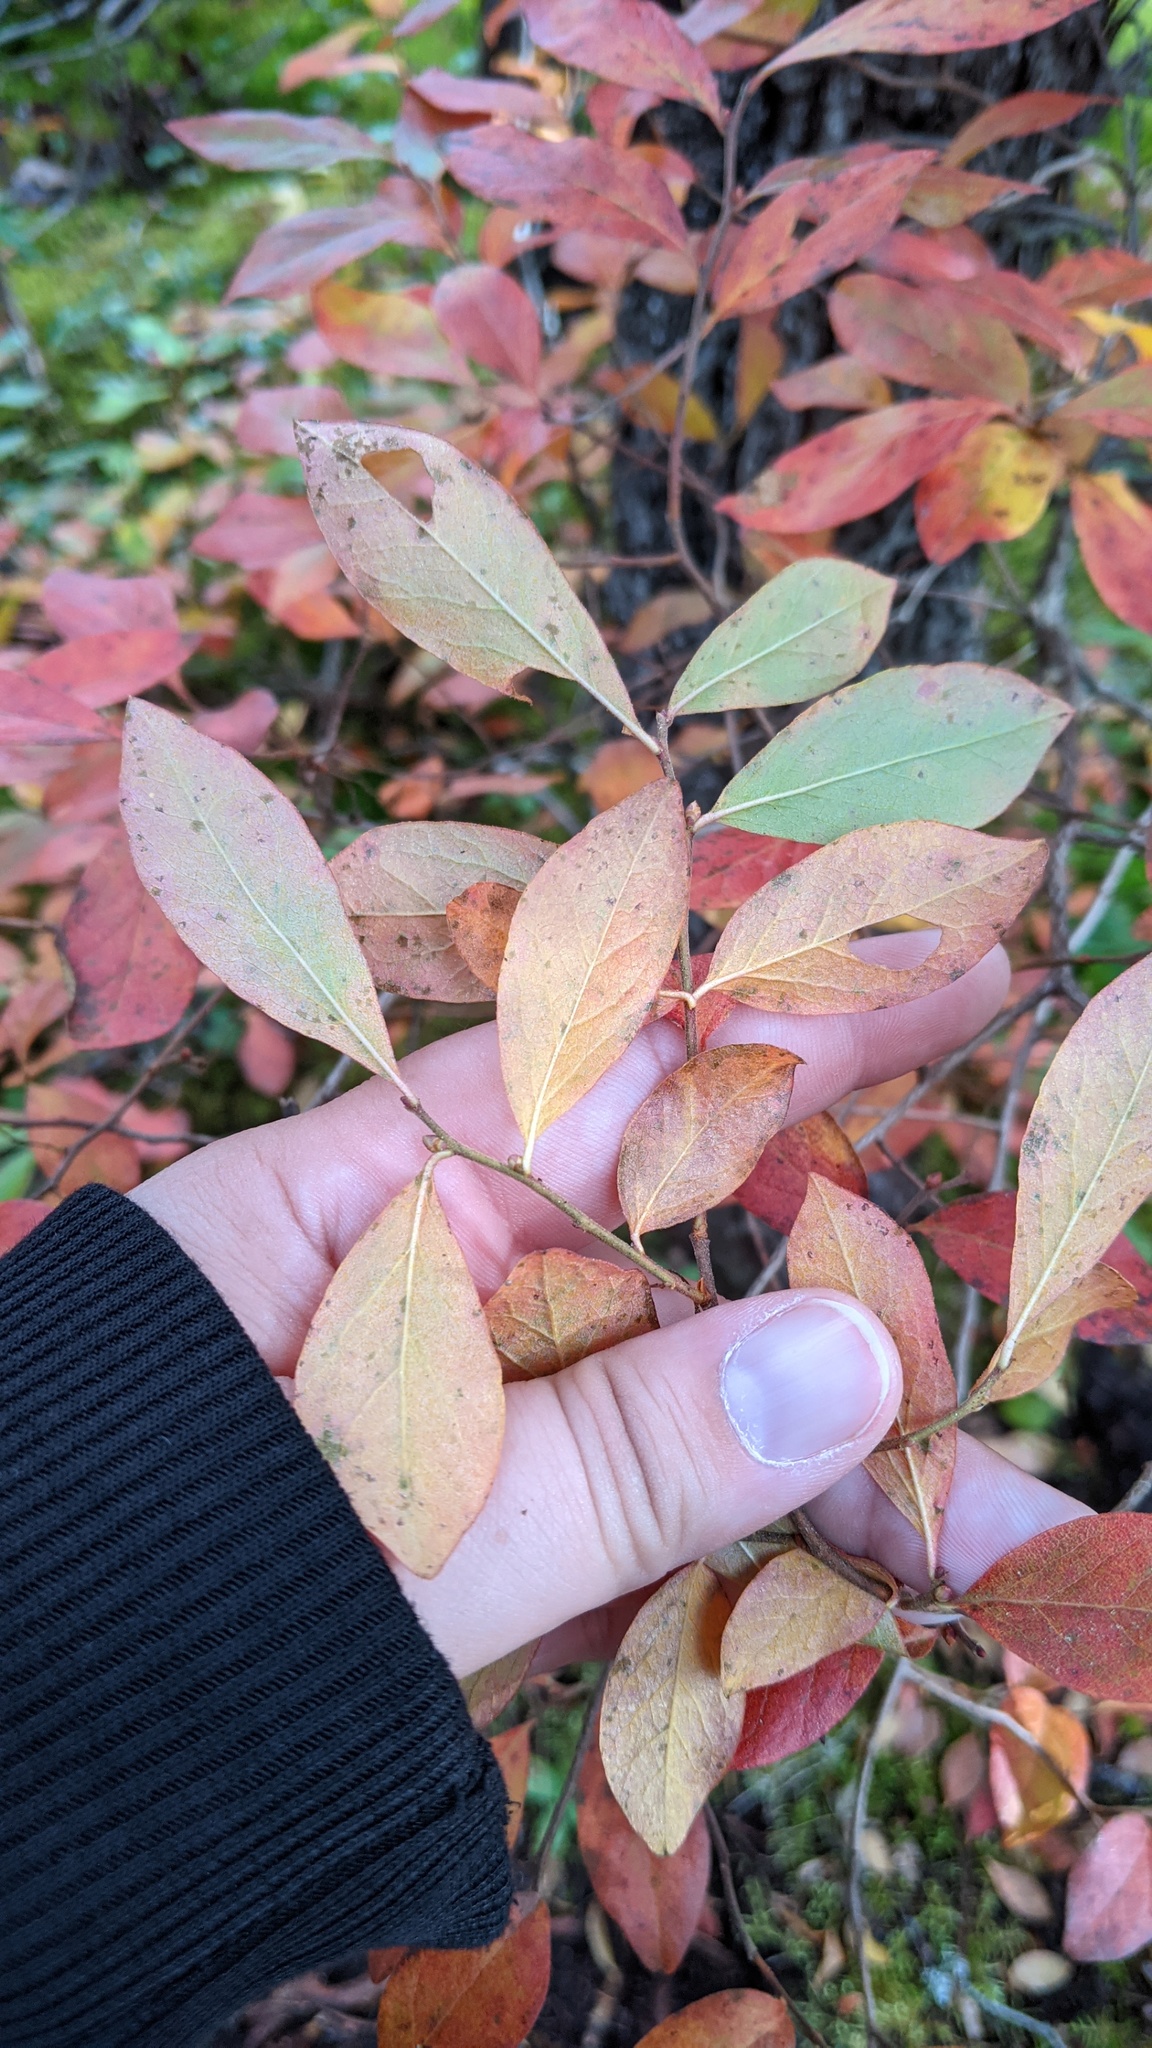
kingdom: Plantae
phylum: Tracheophyta
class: Magnoliopsida
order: Ericales
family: Ericaceae
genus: Gaylussacia
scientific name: Gaylussacia baccata
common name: Black huckleberry
